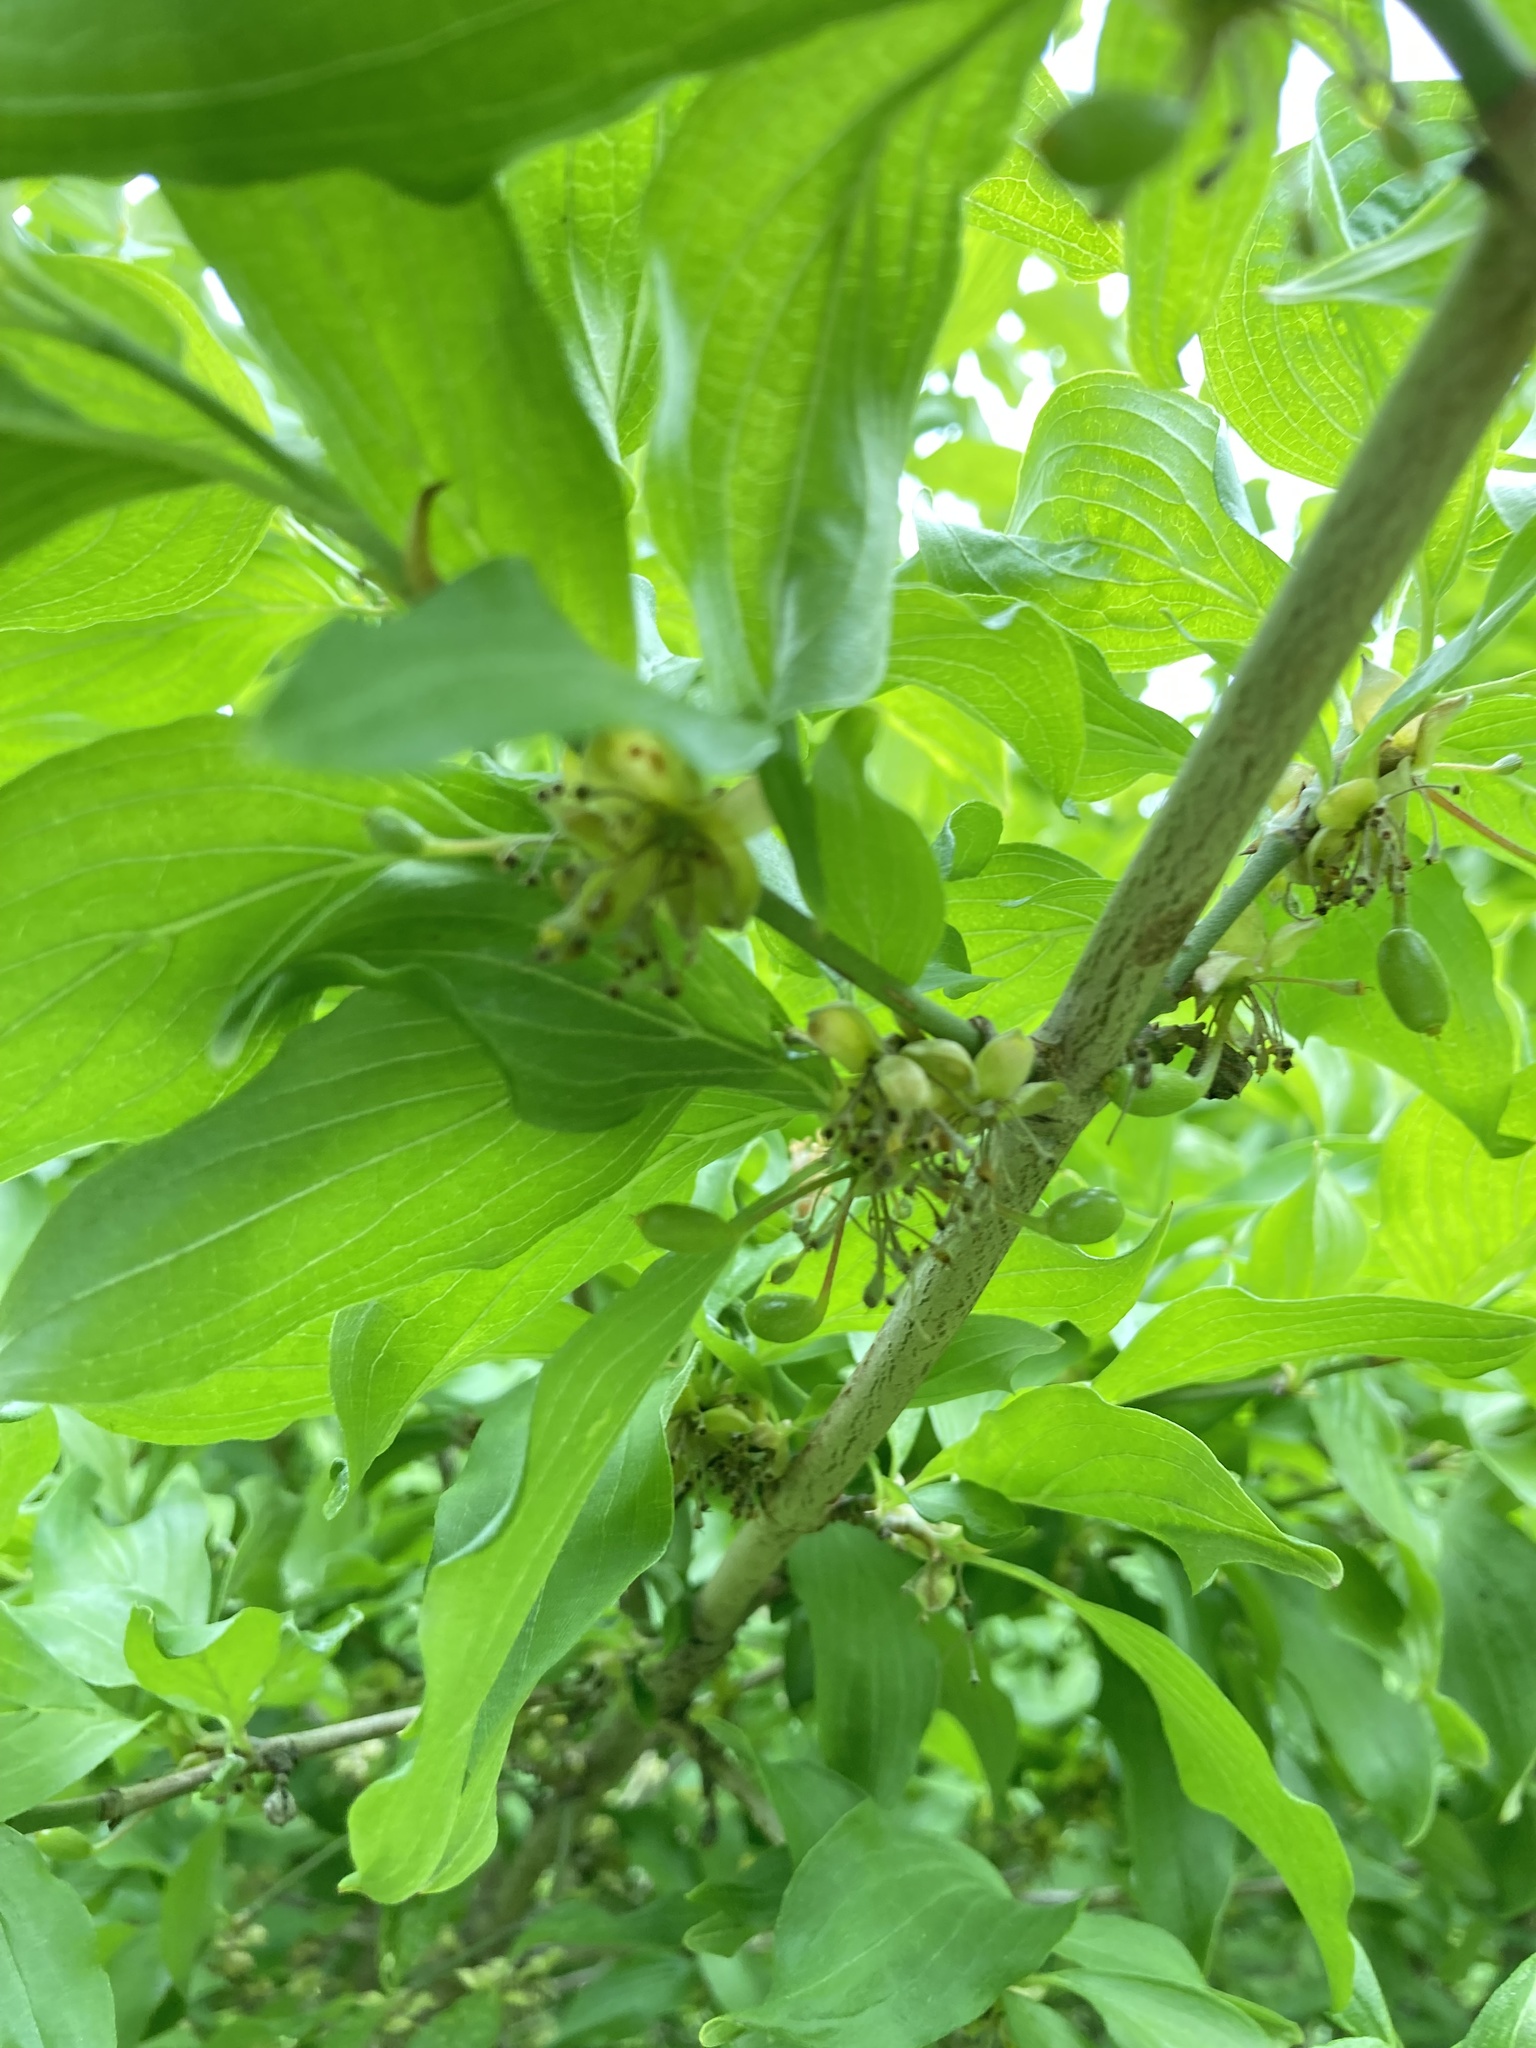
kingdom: Plantae
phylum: Tracheophyta
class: Magnoliopsida
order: Cornales
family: Cornaceae
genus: Cornus
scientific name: Cornus mas
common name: Cornelian-cherry
